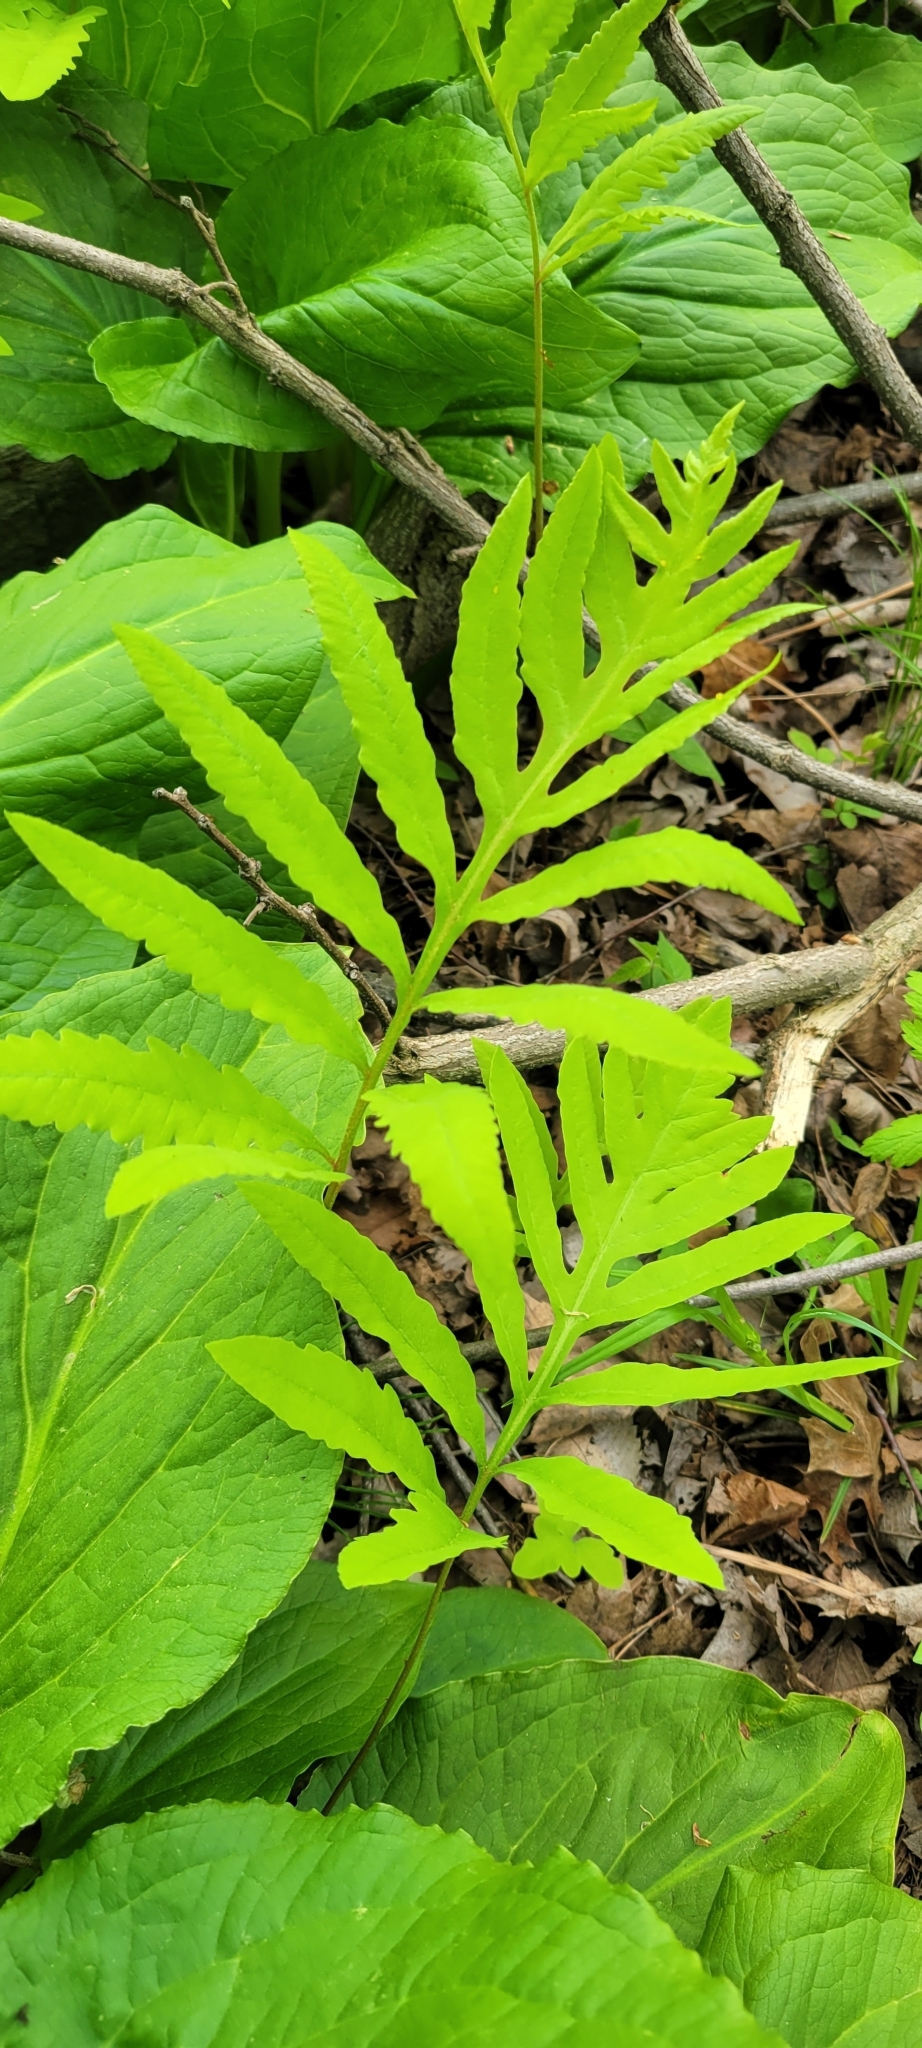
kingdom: Plantae
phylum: Tracheophyta
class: Polypodiopsida
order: Polypodiales
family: Onocleaceae
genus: Onoclea
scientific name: Onoclea sensibilis
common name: Sensitive fern
